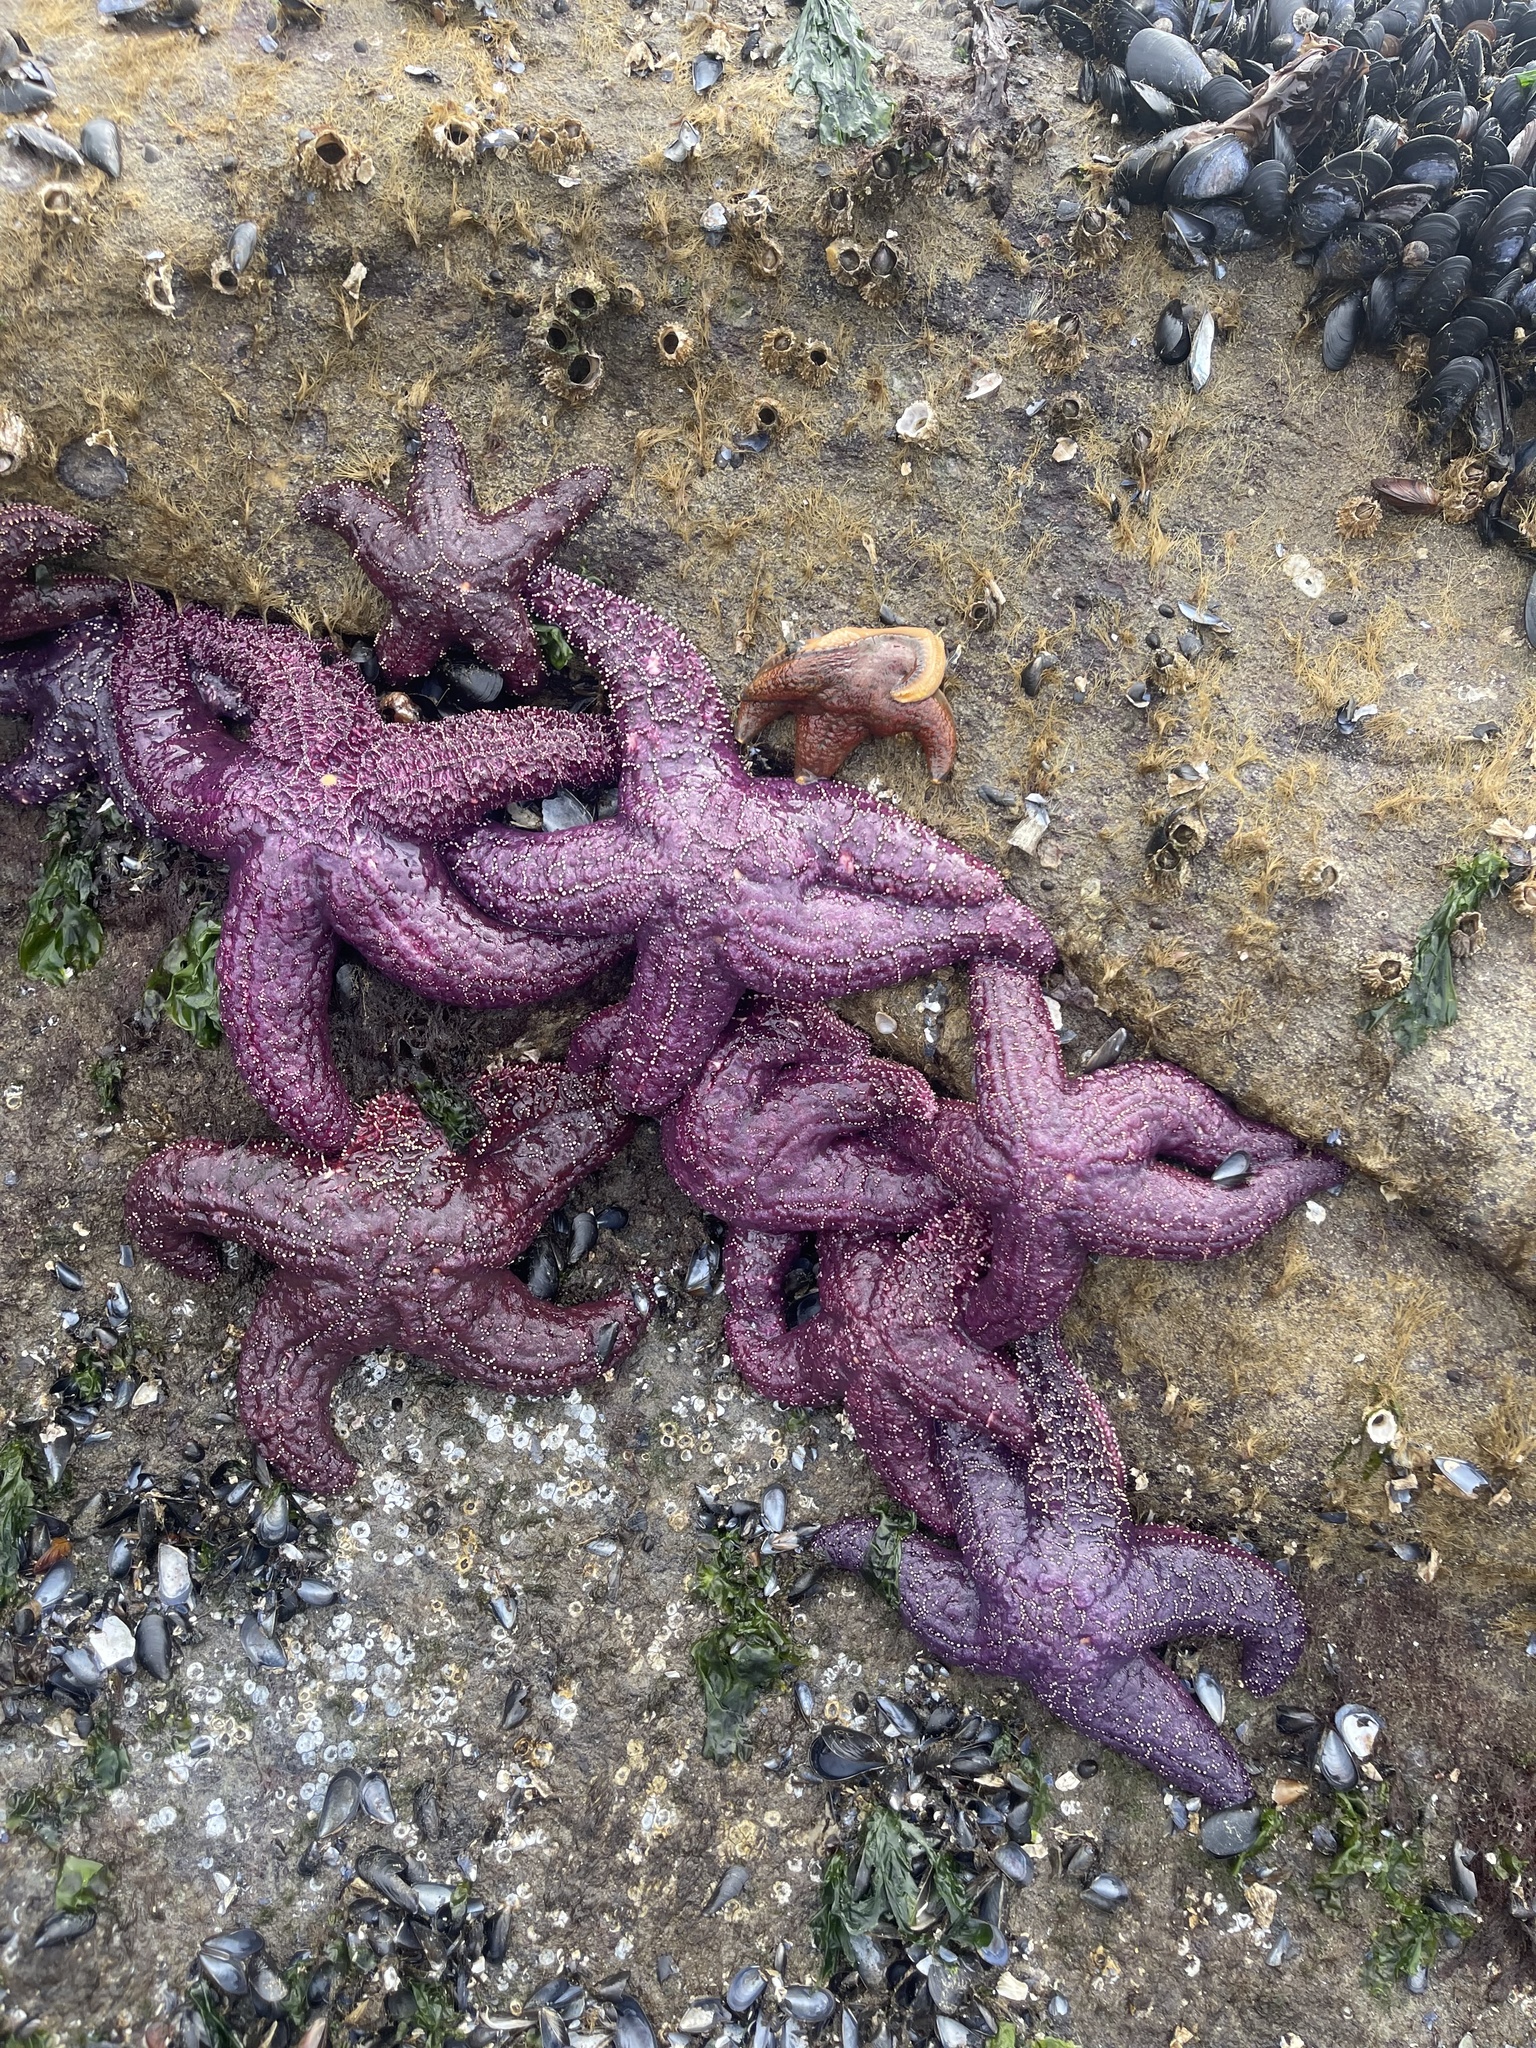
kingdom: Animalia
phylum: Echinodermata
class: Asteroidea
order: Forcipulatida
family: Asteriidae
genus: Pisaster
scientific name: Pisaster ochraceus
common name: Ochre stars
